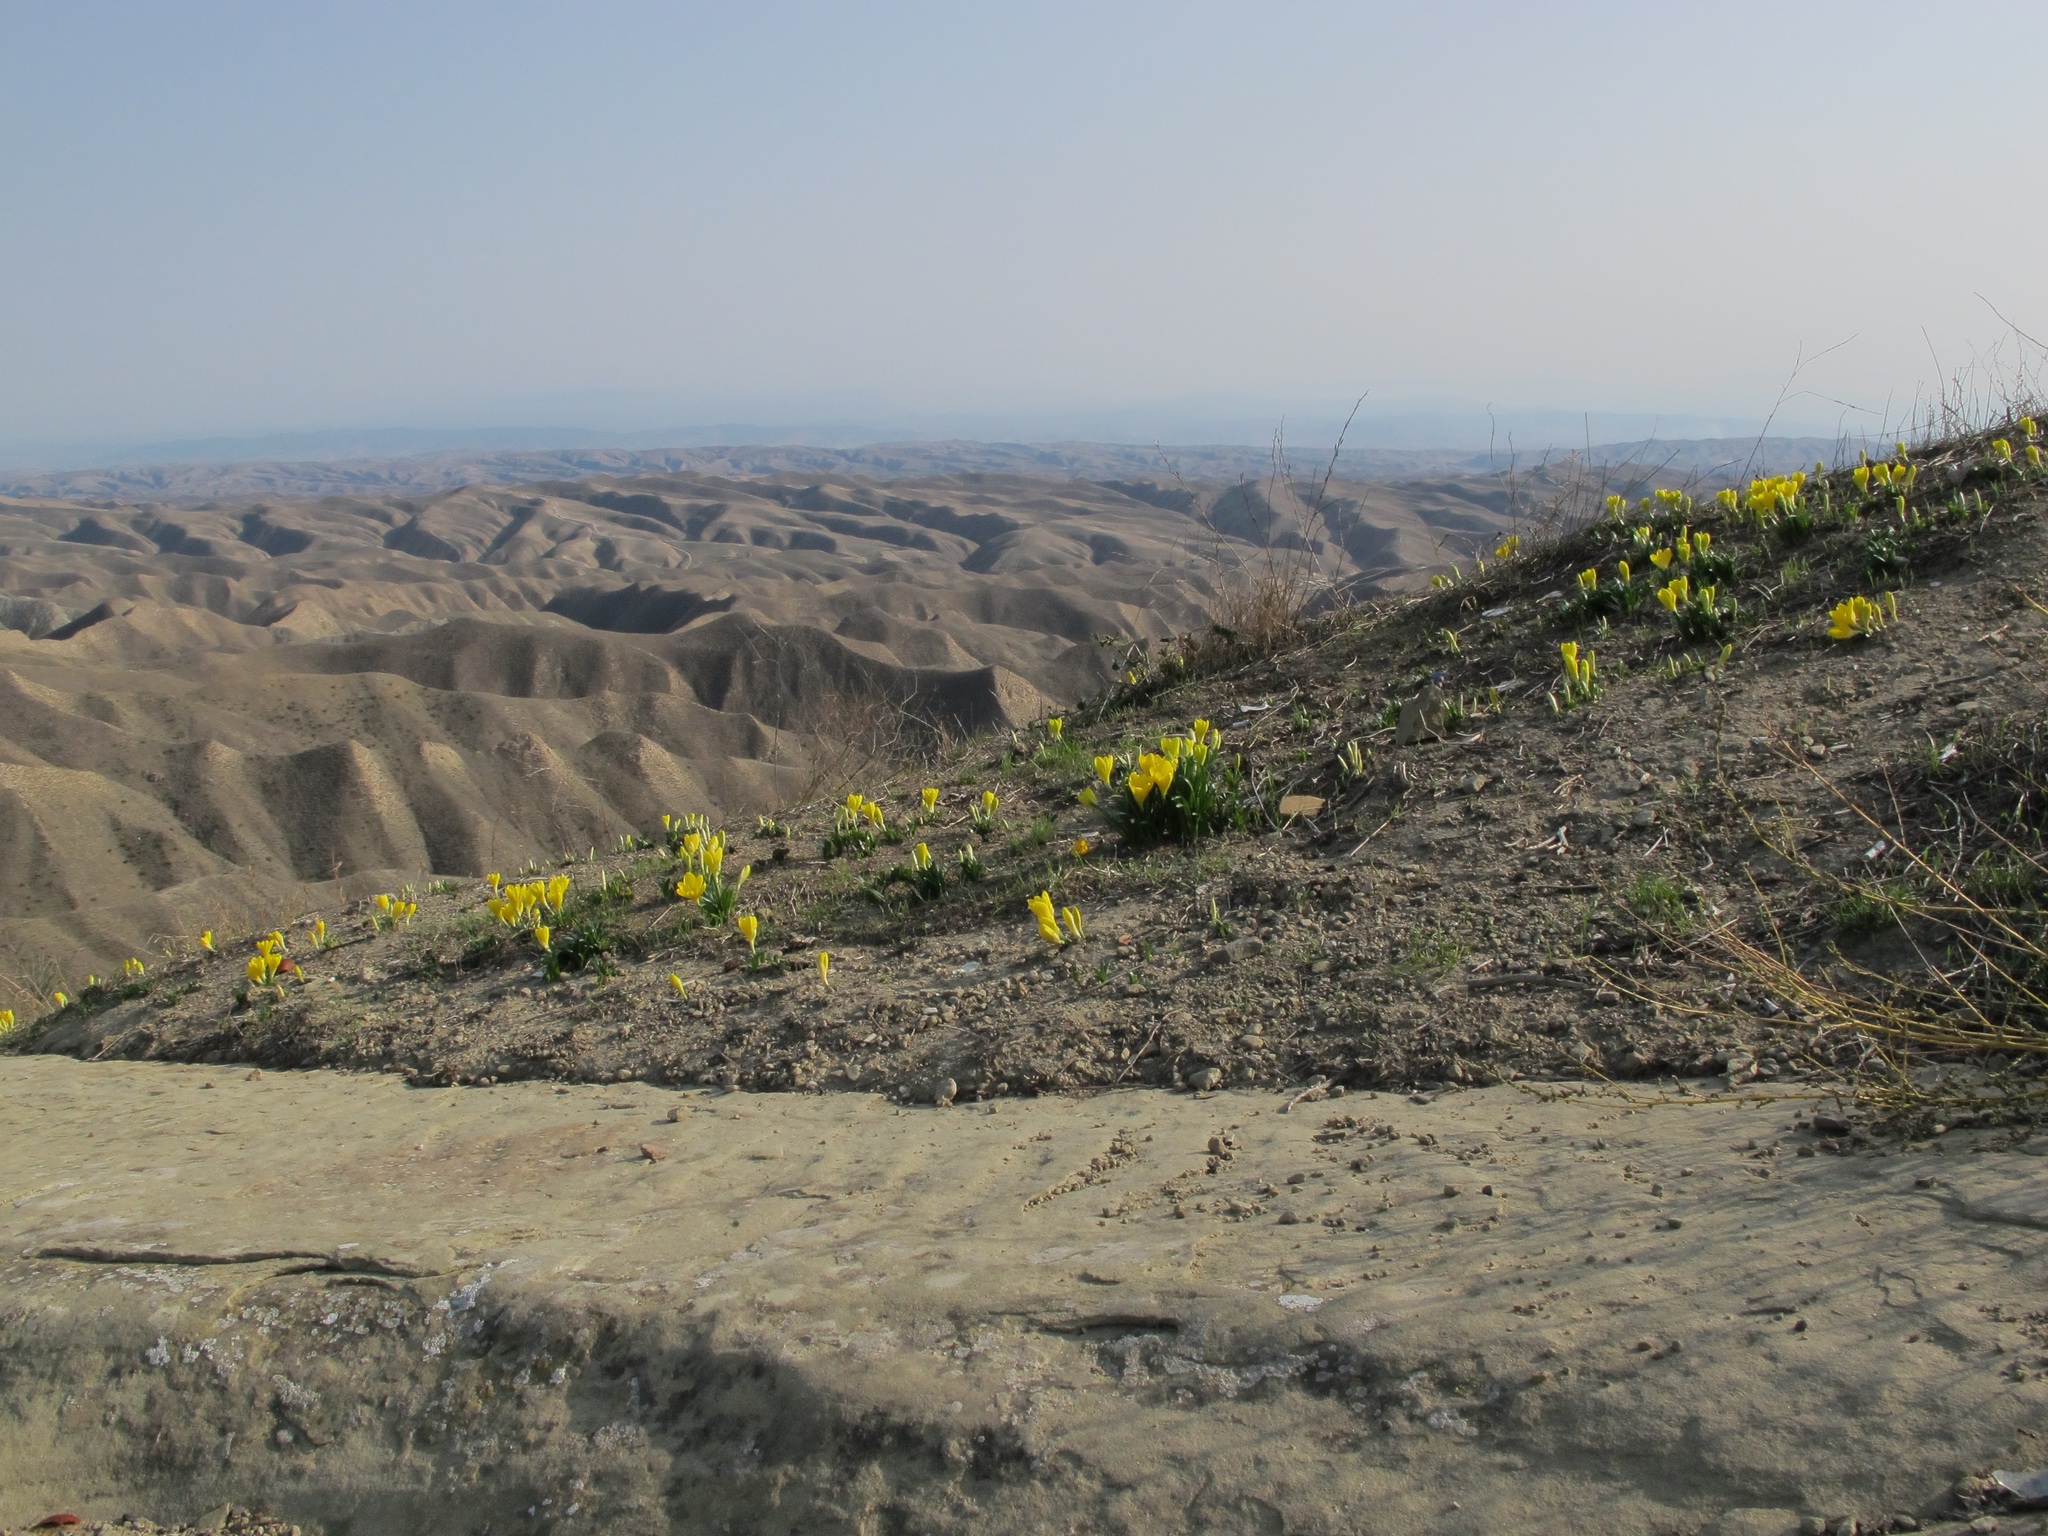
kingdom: Plantae
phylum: Tracheophyta
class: Liliopsida
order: Asparagales
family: Amaryllidaceae
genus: Sternbergia
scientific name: Sternbergia lutea
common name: Winter daffodil
